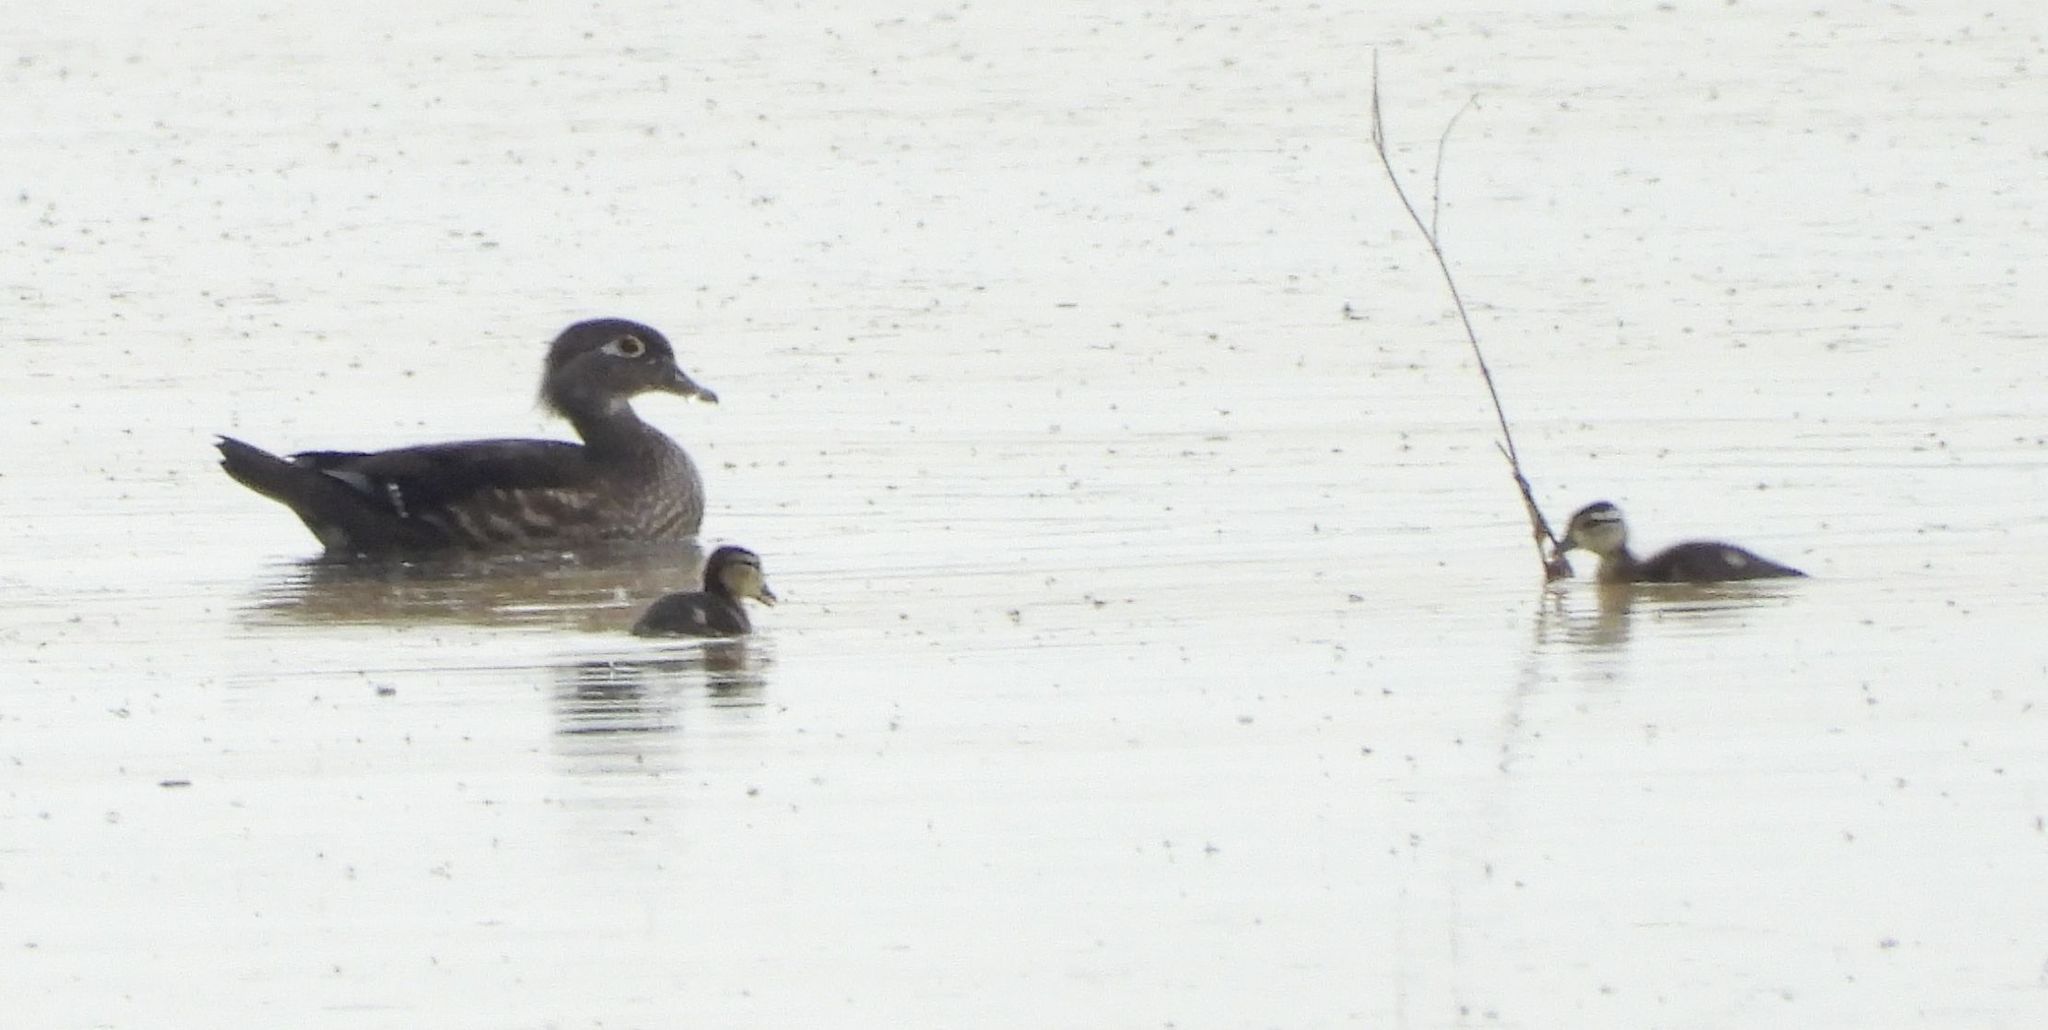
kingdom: Animalia
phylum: Chordata
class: Aves
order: Anseriformes
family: Anatidae
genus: Aix
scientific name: Aix sponsa
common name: Wood duck
